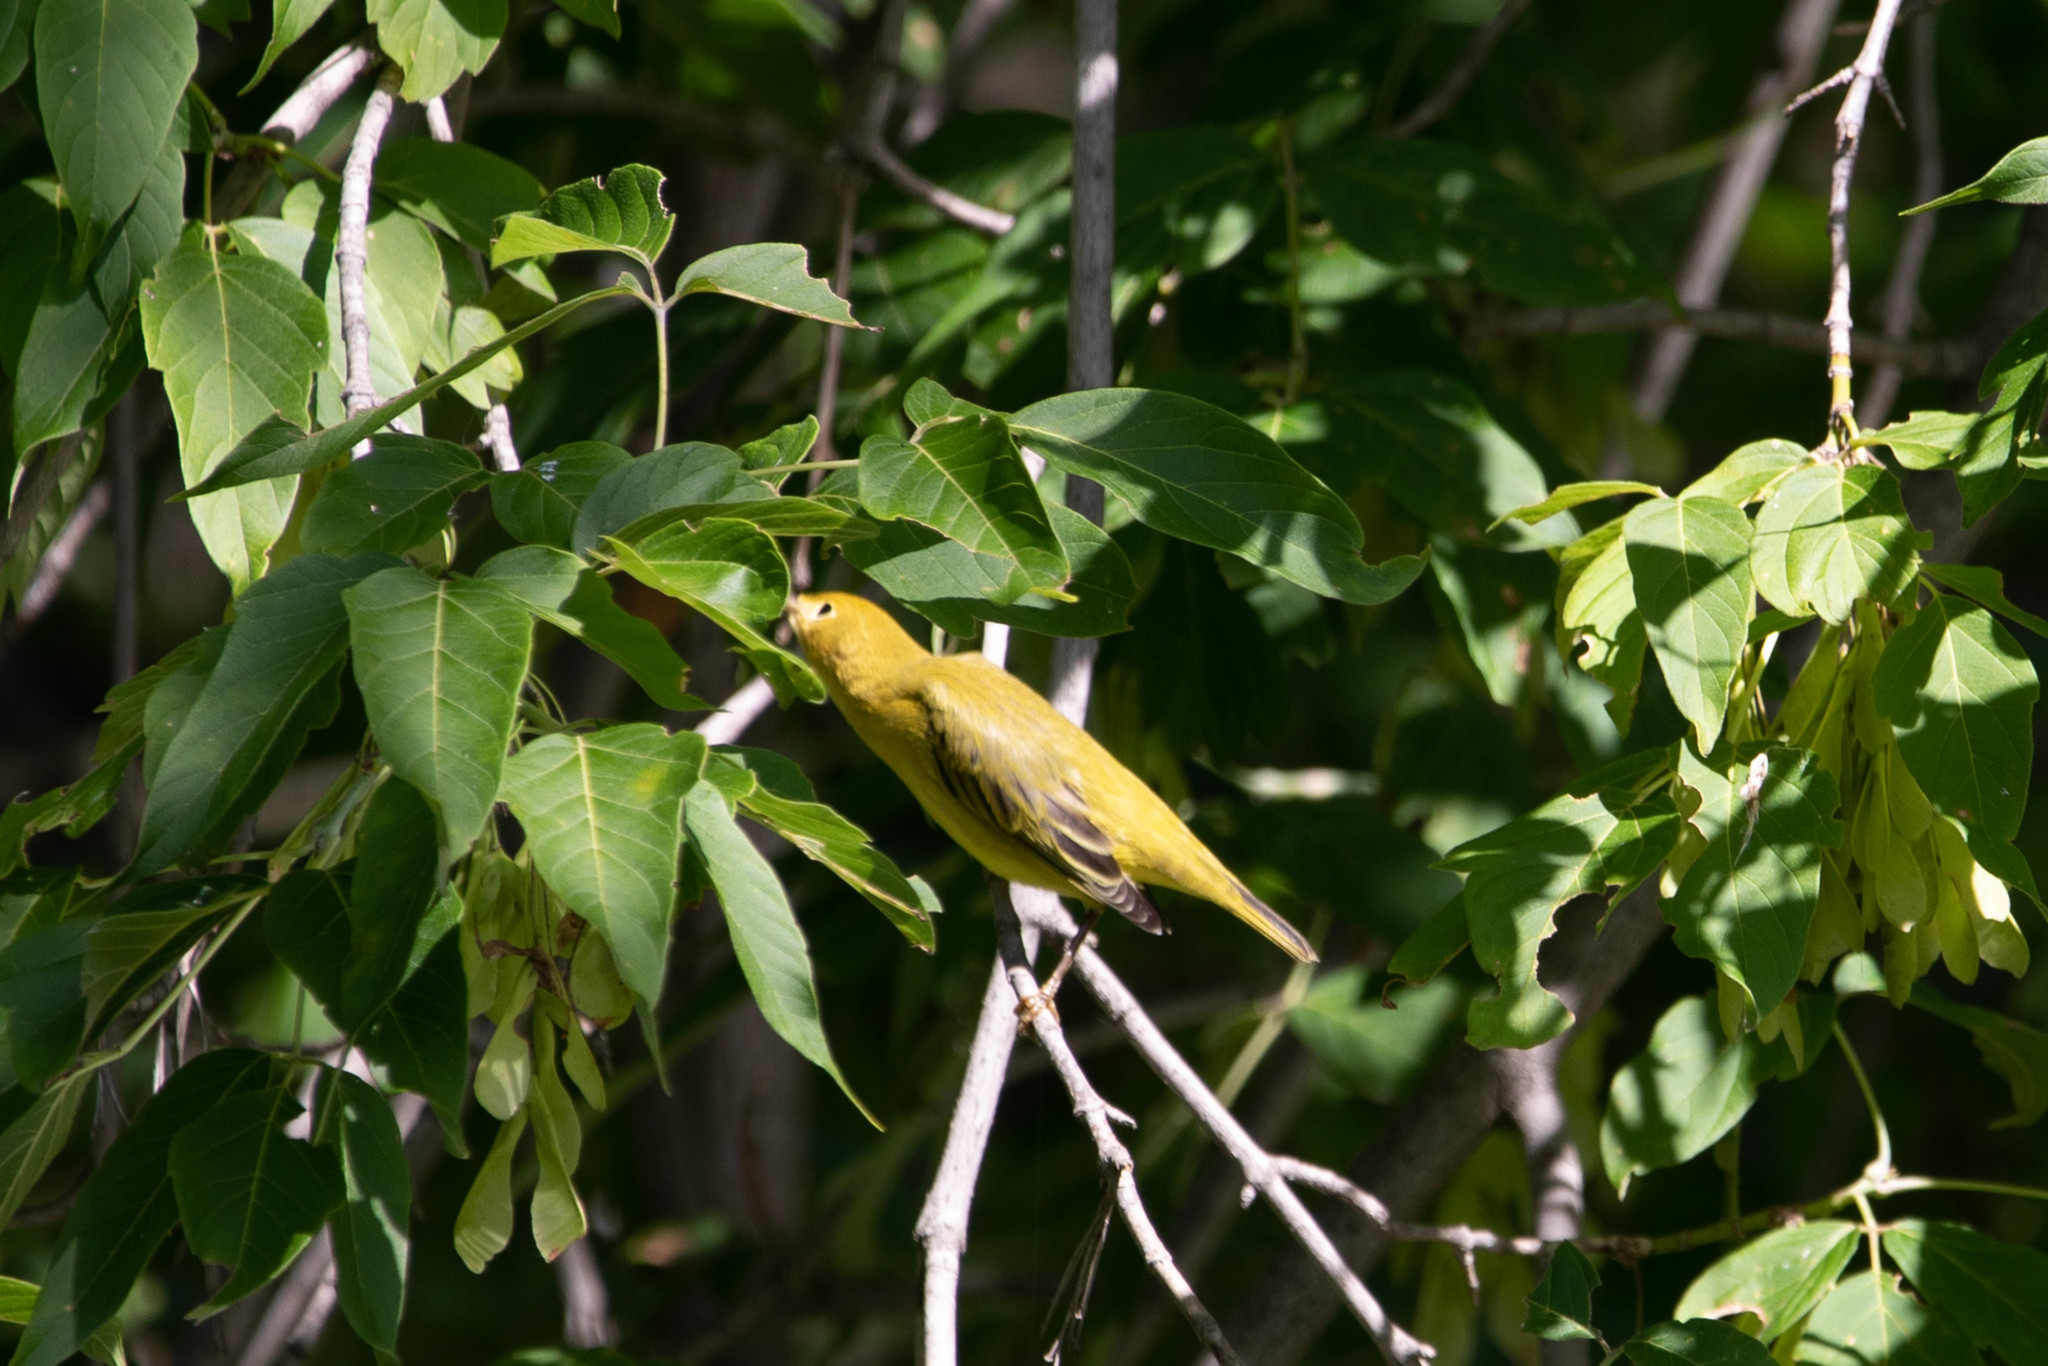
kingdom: Animalia
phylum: Chordata
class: Aves
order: Passeriformes
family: Parulidae
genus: Setophaga
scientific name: Setophaga petechia
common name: Yellow warbler
